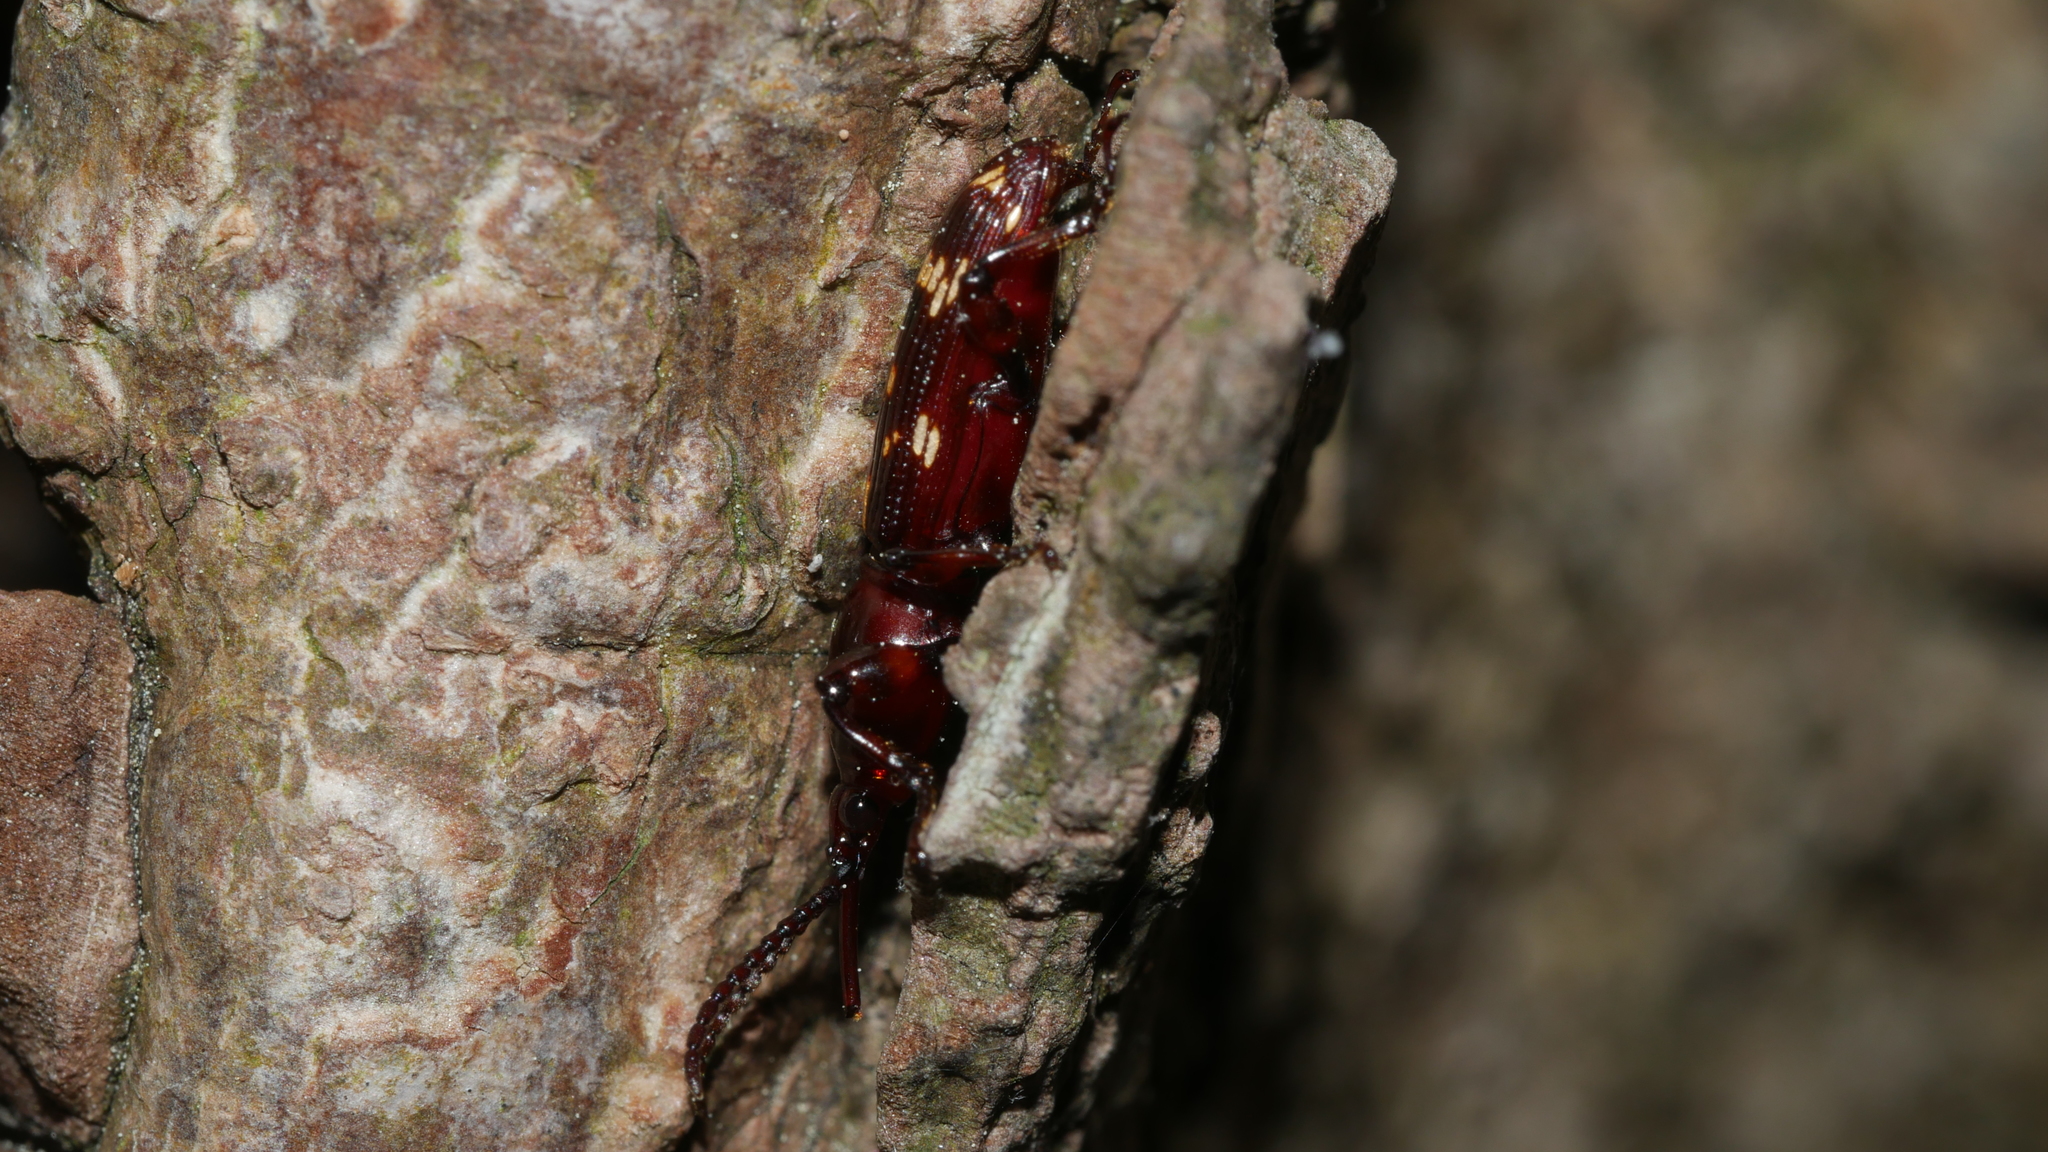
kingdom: Animalia
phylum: Arthropoda
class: Insecta
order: Coleoptera
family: Brentidae
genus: Arrenodes
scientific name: Arrenodes minutus
